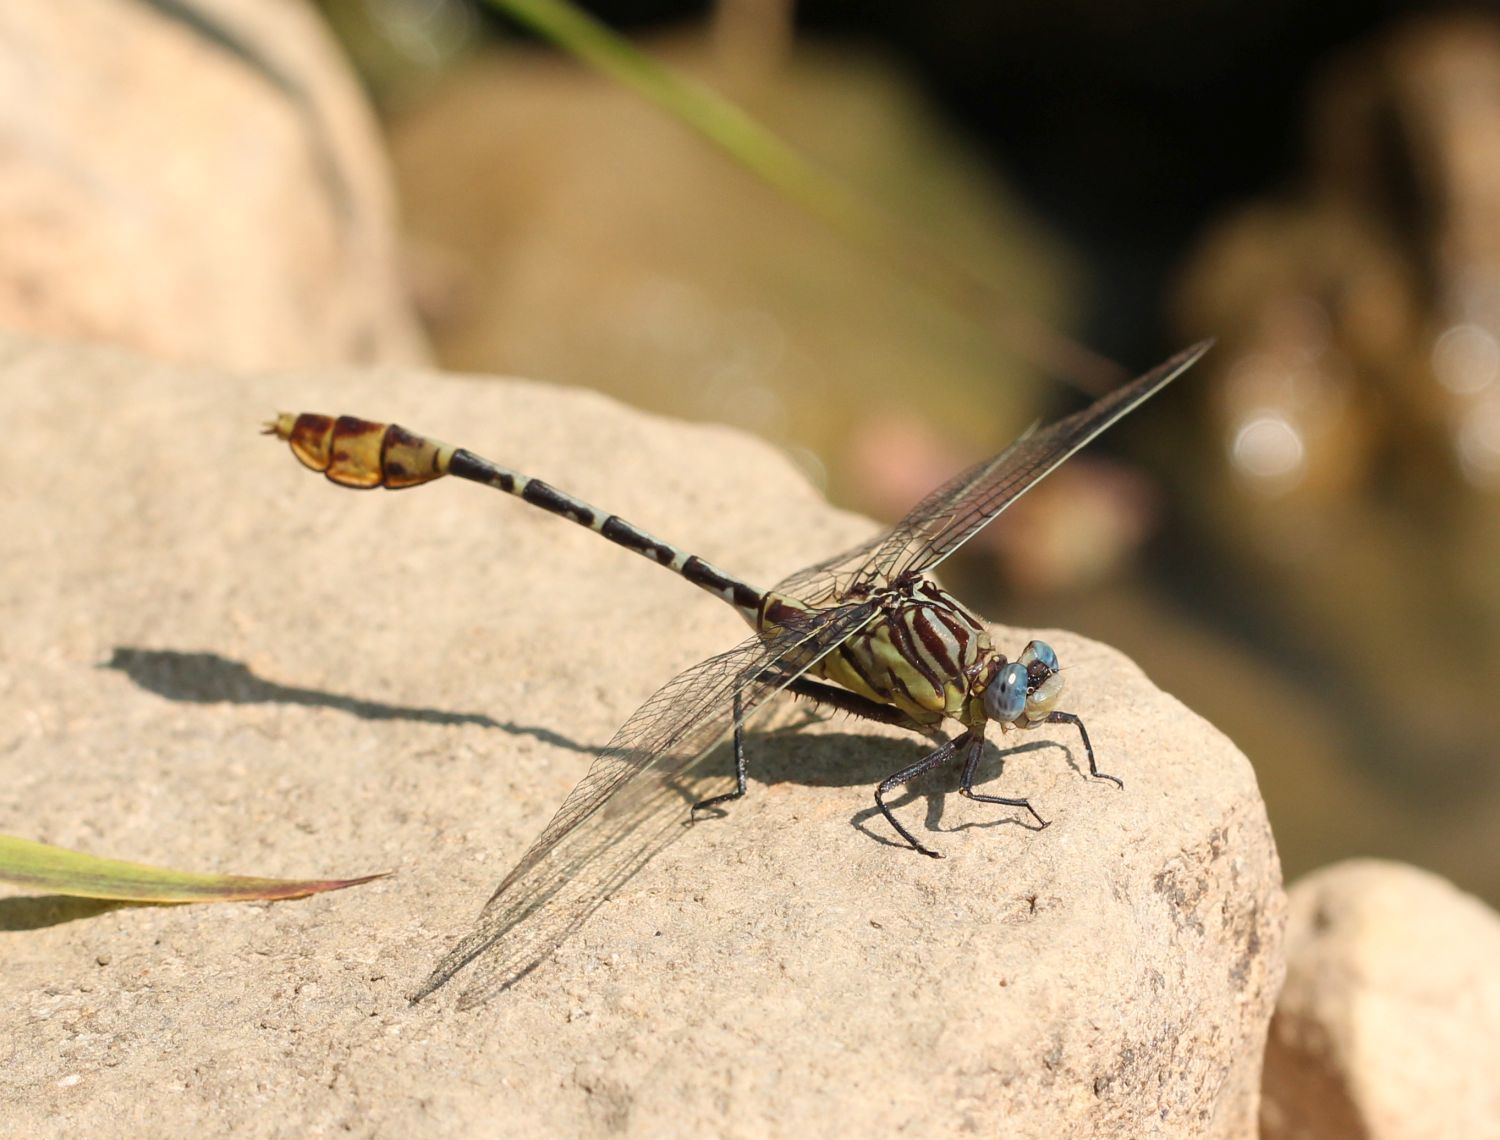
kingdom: Animalia
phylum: Arthropoda
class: Insecta
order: Odonata
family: Gomphidae
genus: Dromogomphus
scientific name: Dromogomphus spoliatus
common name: Flag-tailed spinyleg
